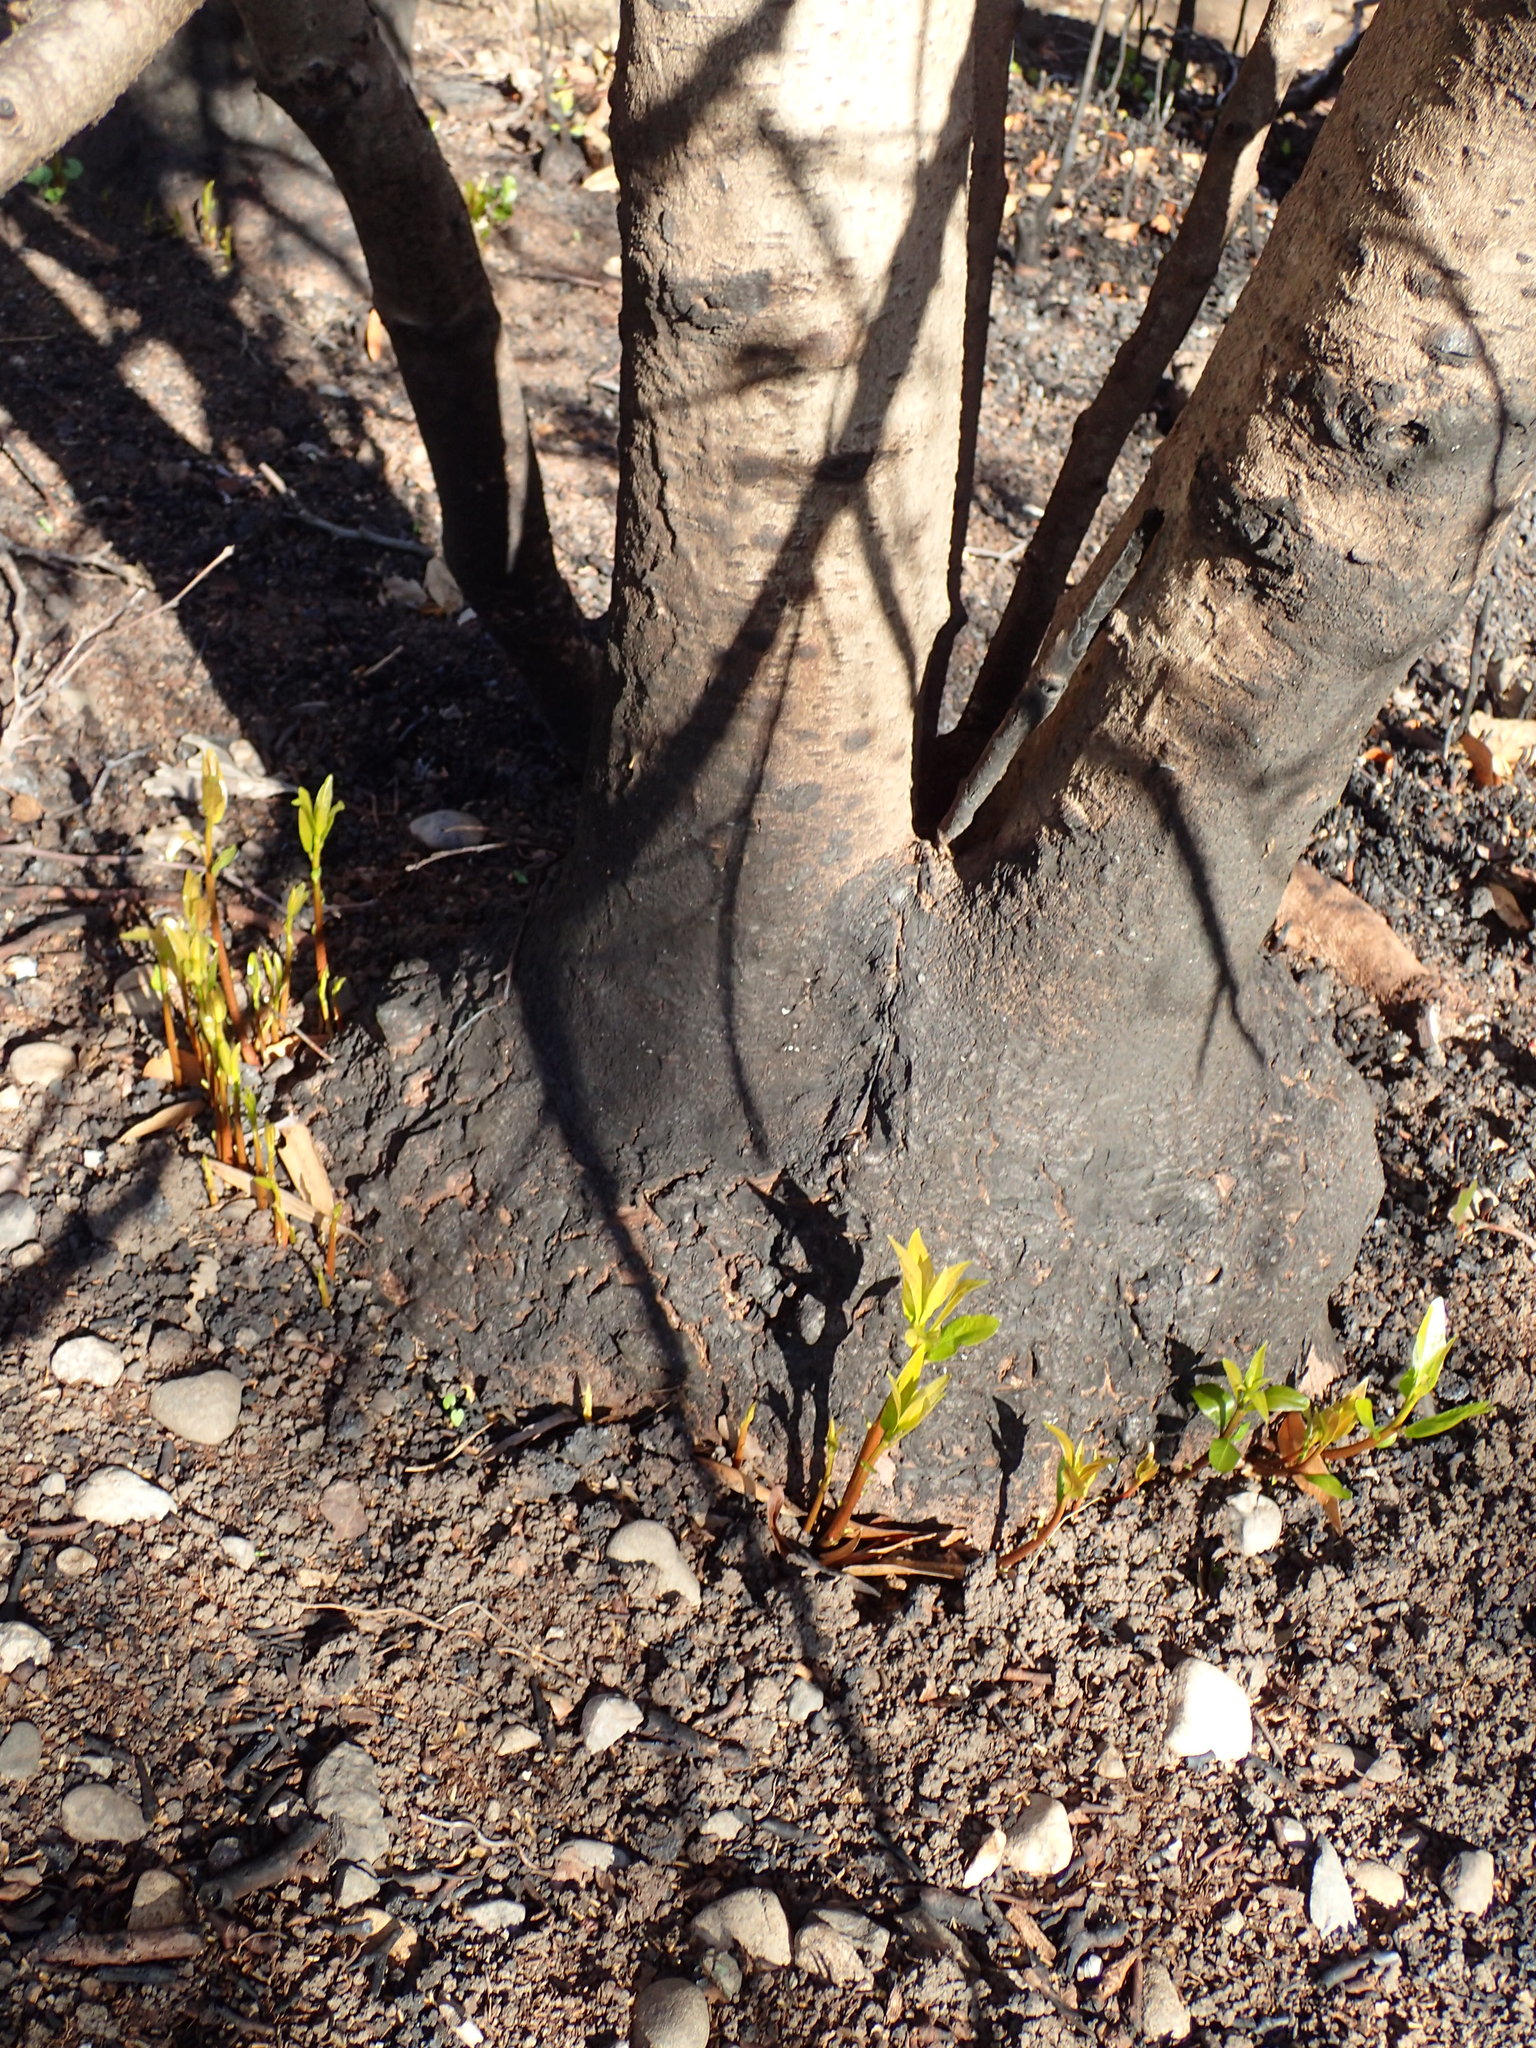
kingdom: Plantae
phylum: Tracheophyta
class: Magnoliopsida
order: Laurales
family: Lauraceae
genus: Umbellularia
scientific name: Umbellularia californica
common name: California bay
